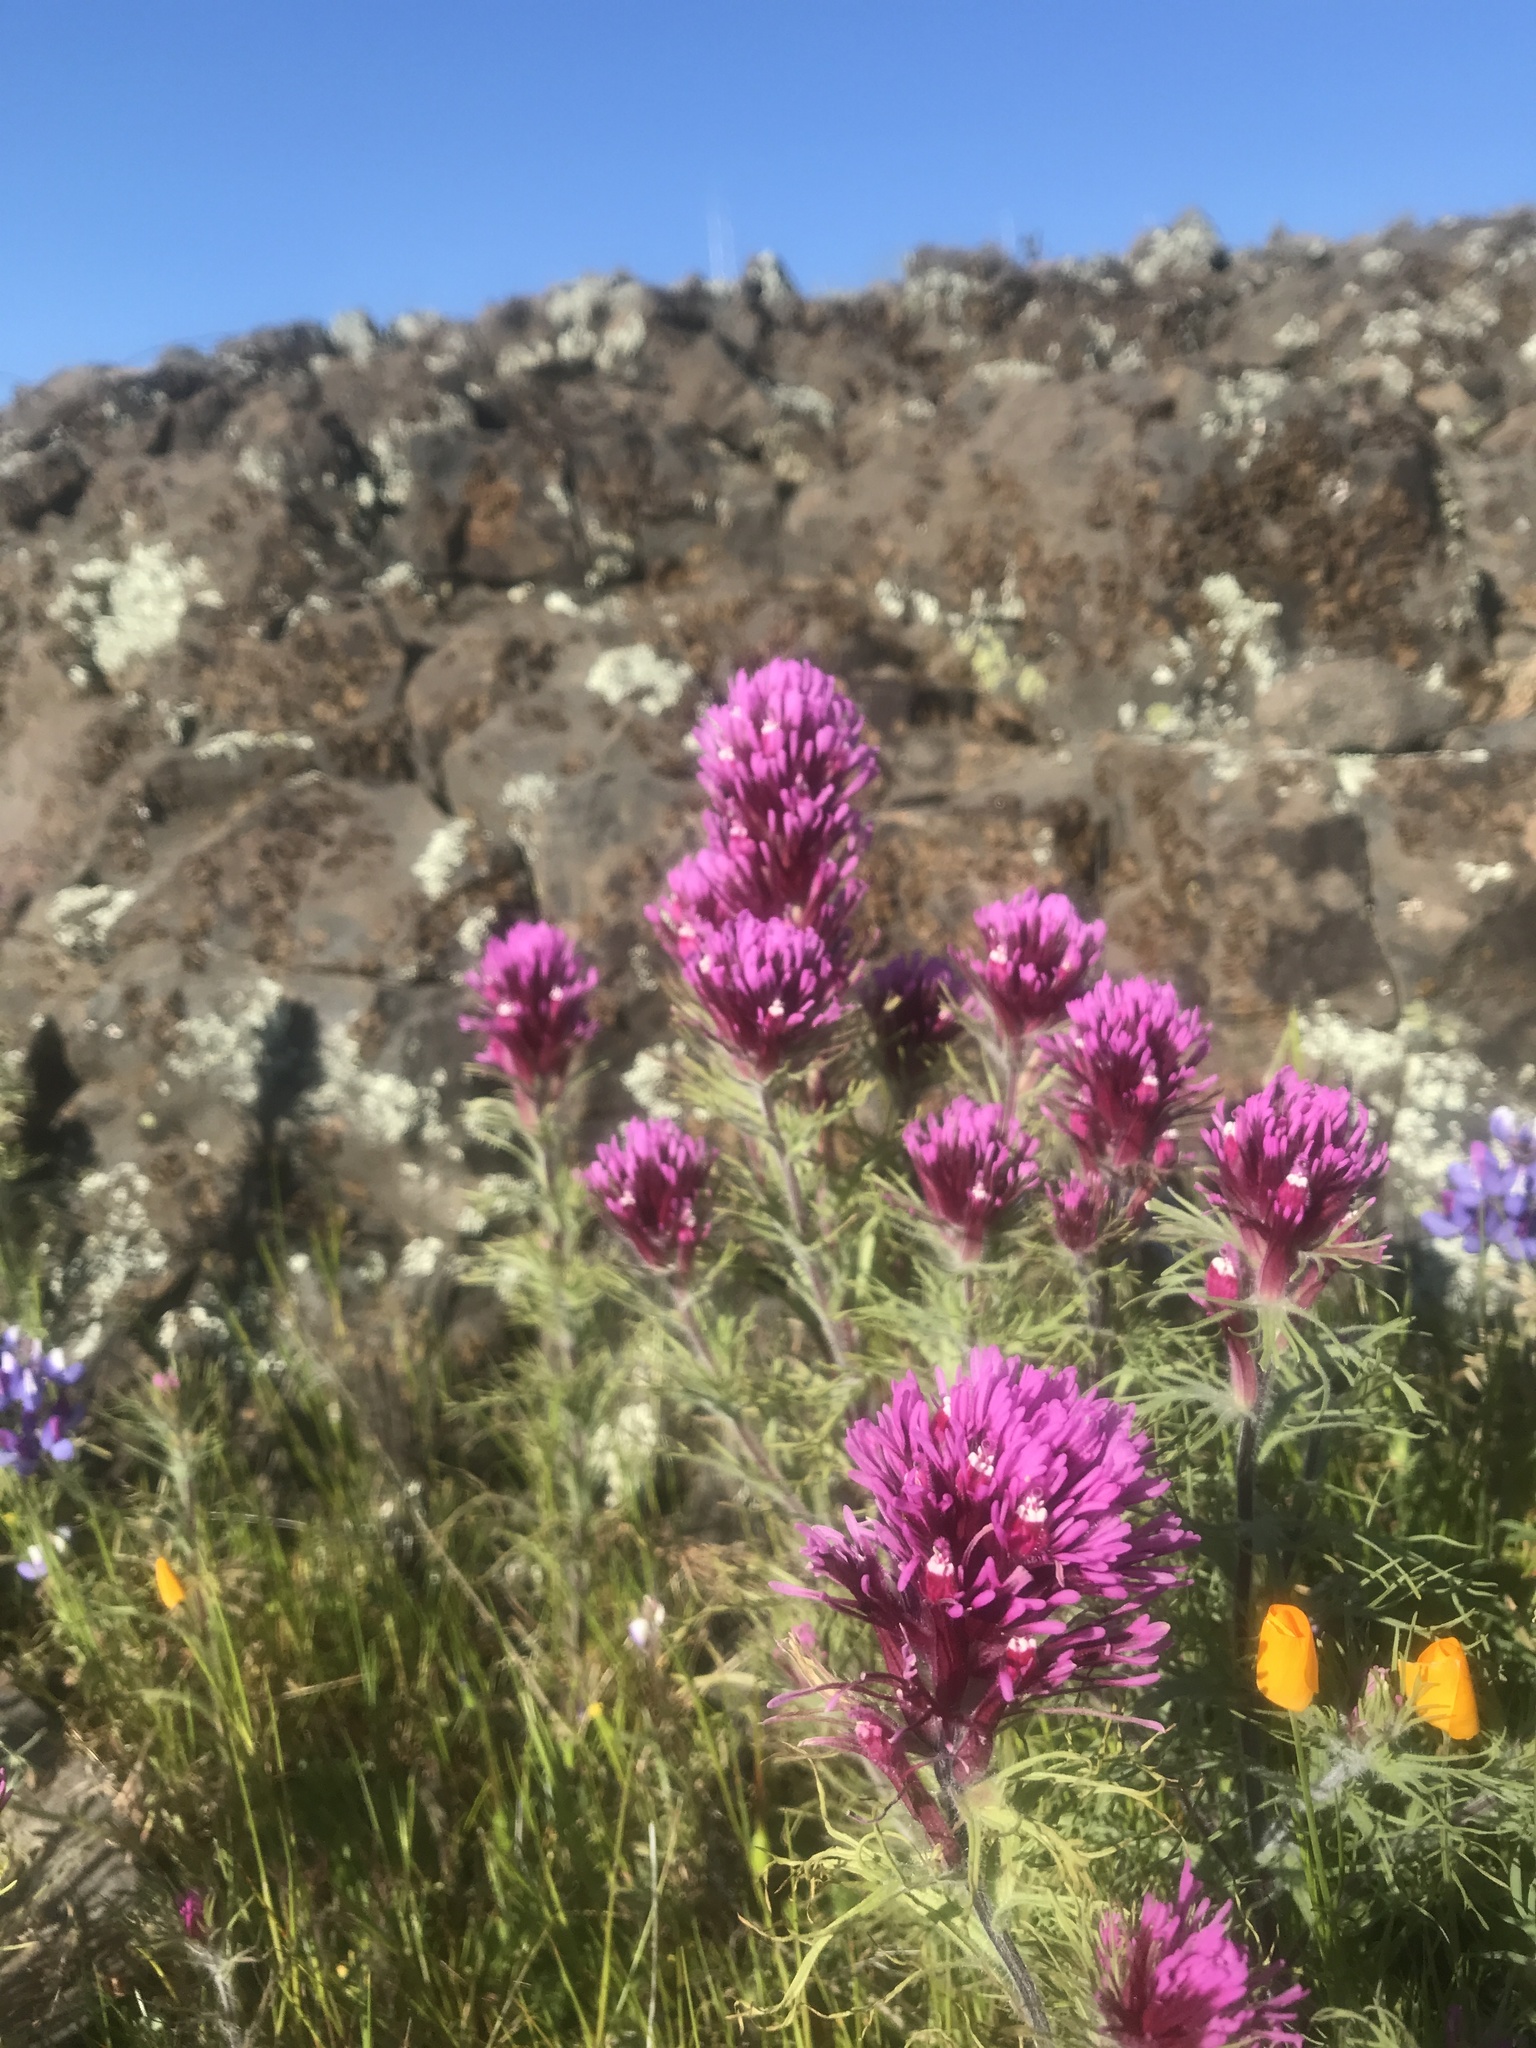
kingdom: Plantae
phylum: Tracheophyta
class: Magnoliopsida
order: Lamiales
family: Orobanchaceae
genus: Castilleja
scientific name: Castilleja exserta
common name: Purple owl-clover
